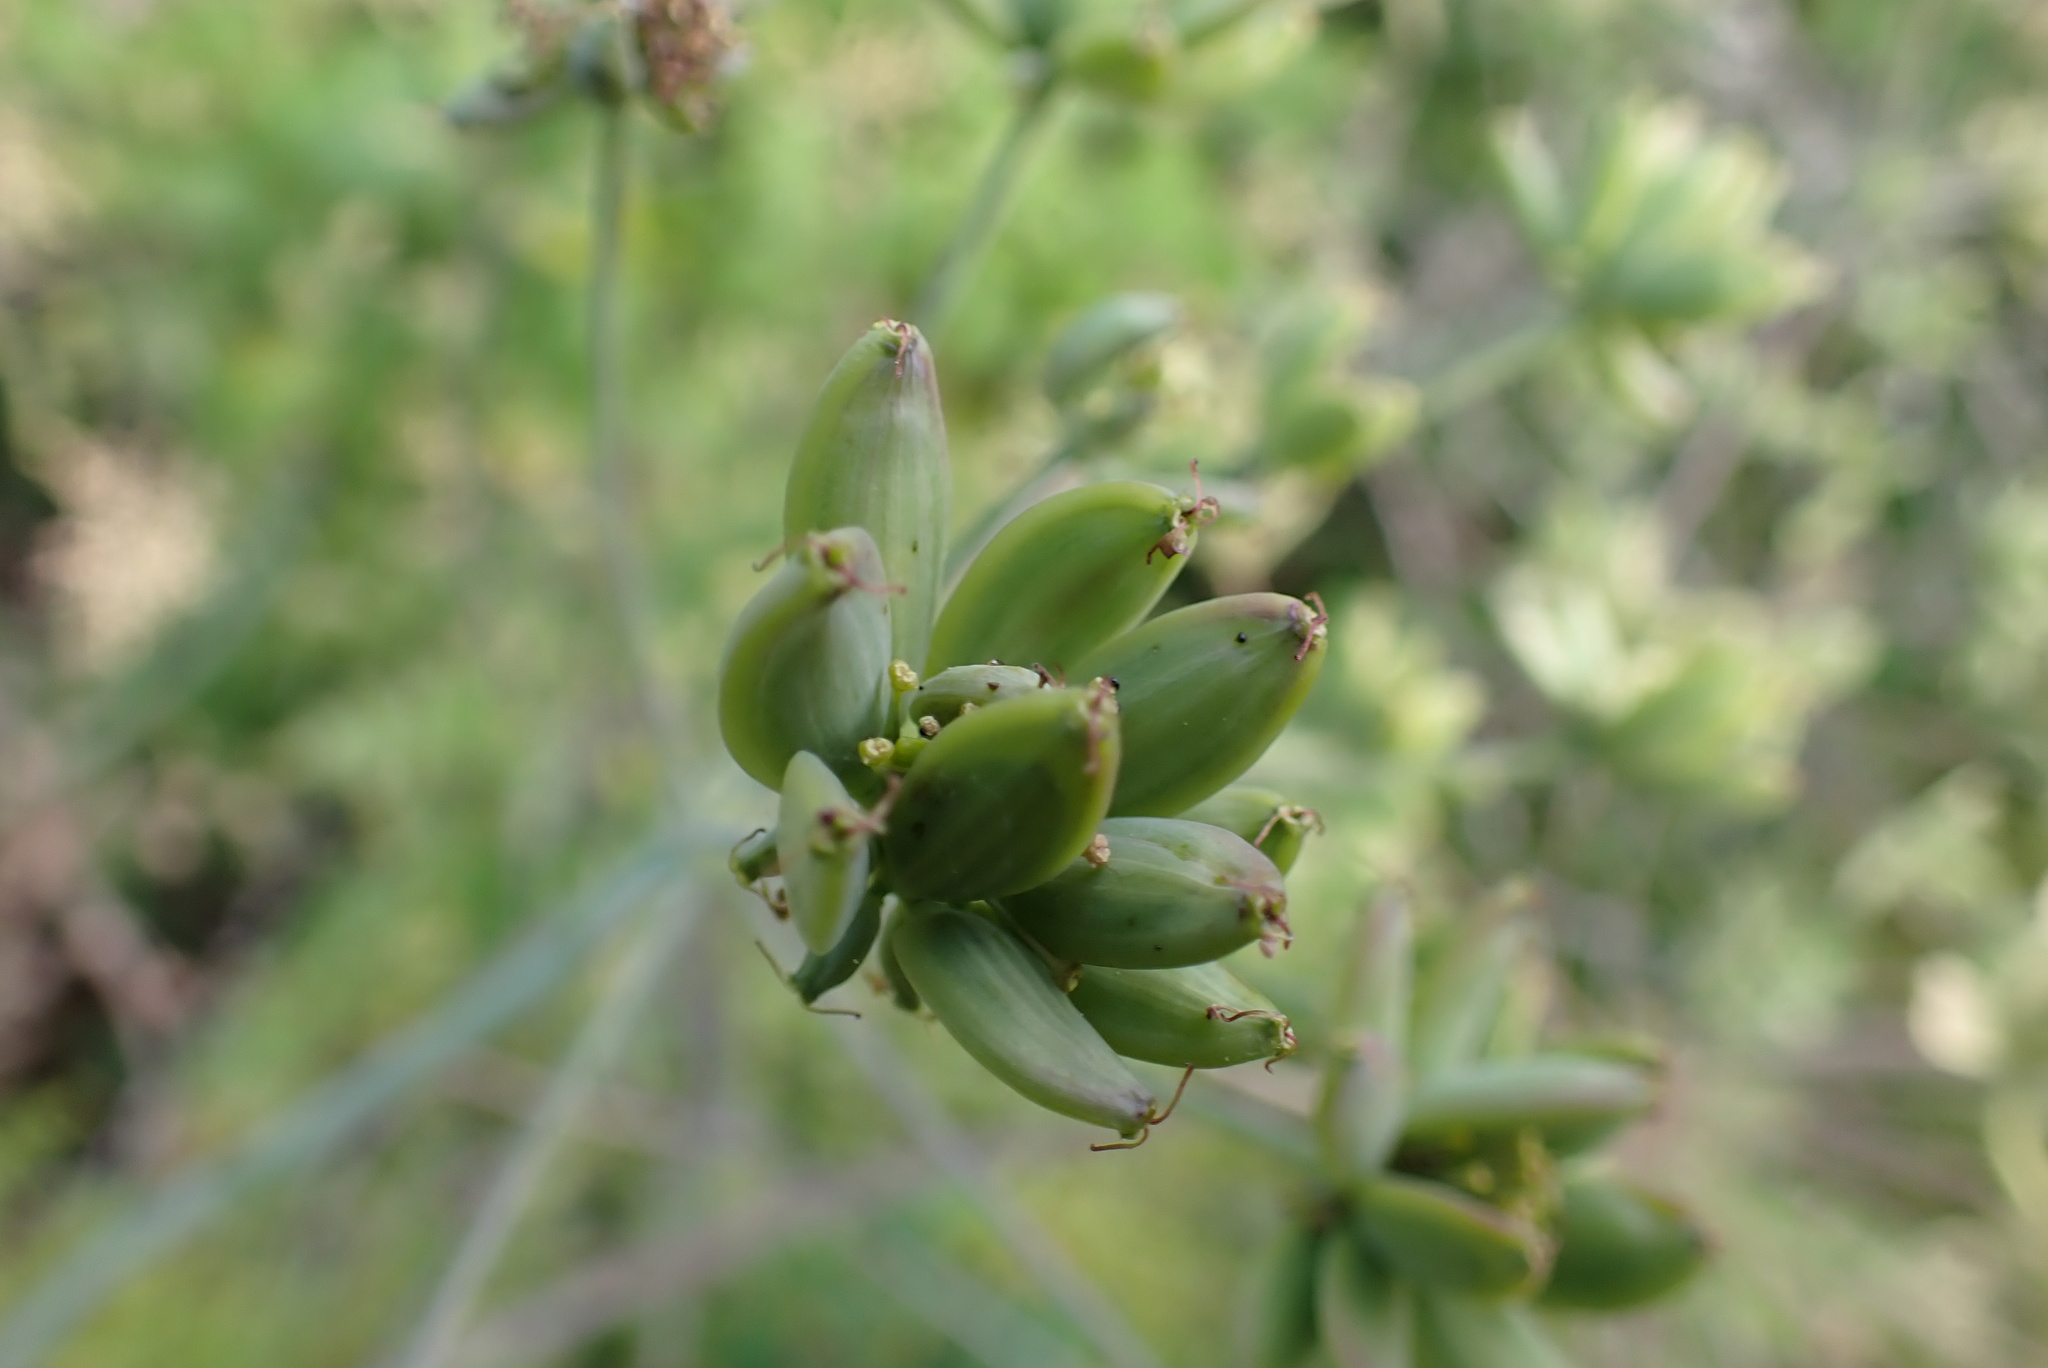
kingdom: Plantae
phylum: Tracheophyta
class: Magnoliopsida
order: Apiales
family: Apiaceae
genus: Lomatium
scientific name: Lomatium dissectum
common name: Lomatium
